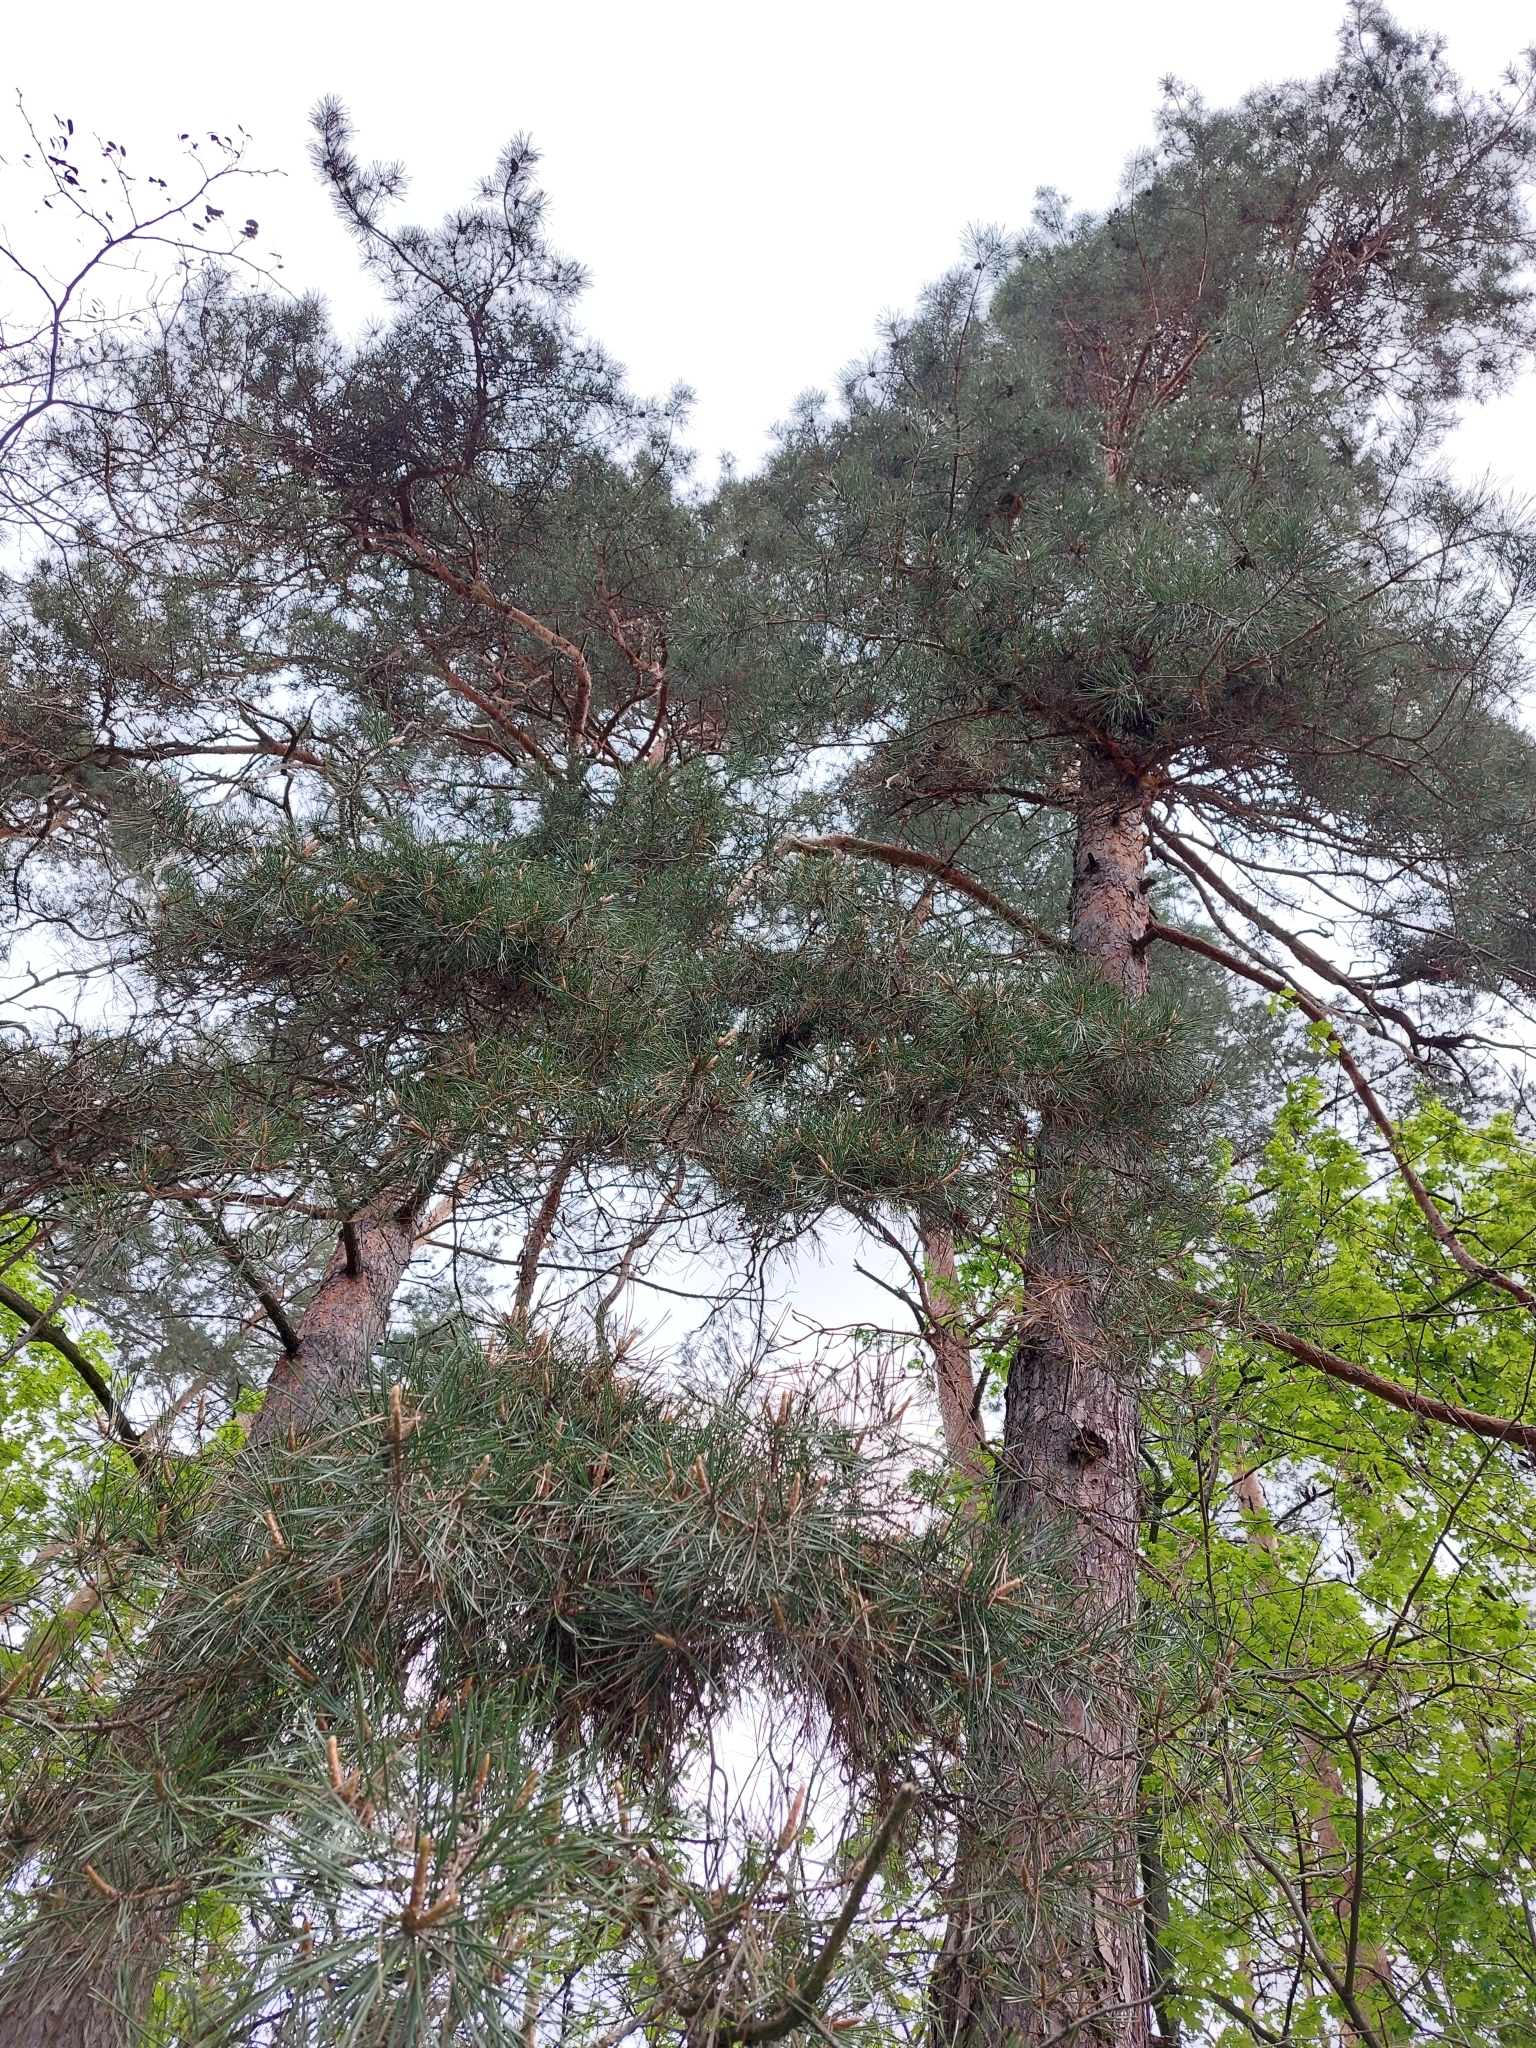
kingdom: Plantae
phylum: Tracheophyta
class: Pinopsida
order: Pinales
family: Pinaceae
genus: Pinus
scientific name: Pinus sylvestris
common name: Scots pine
